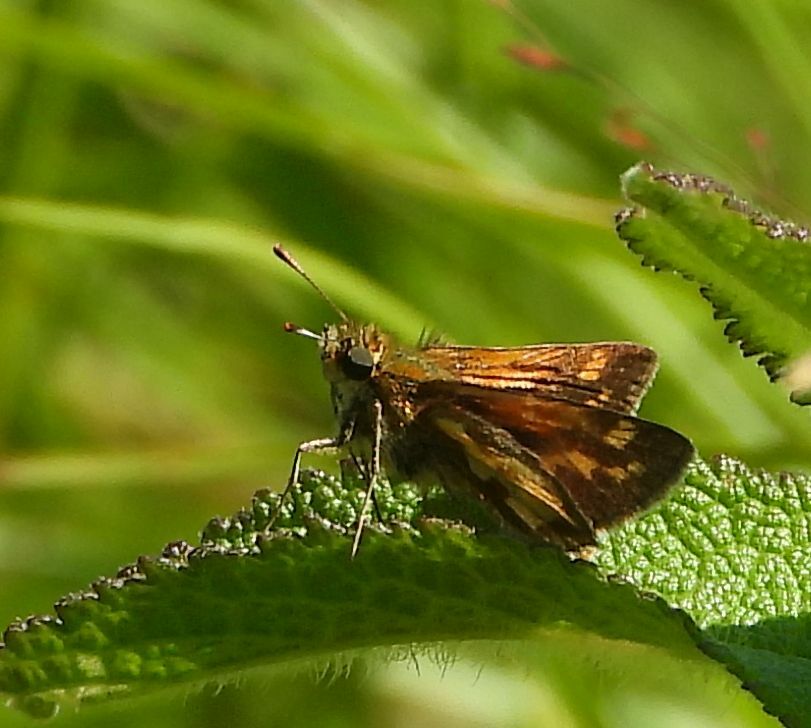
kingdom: Animalia
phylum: Arthropoda
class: Insecta
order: Lepidoptera
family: Hesperiidae
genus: Polites
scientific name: Polites coras
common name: Peck's skipper
